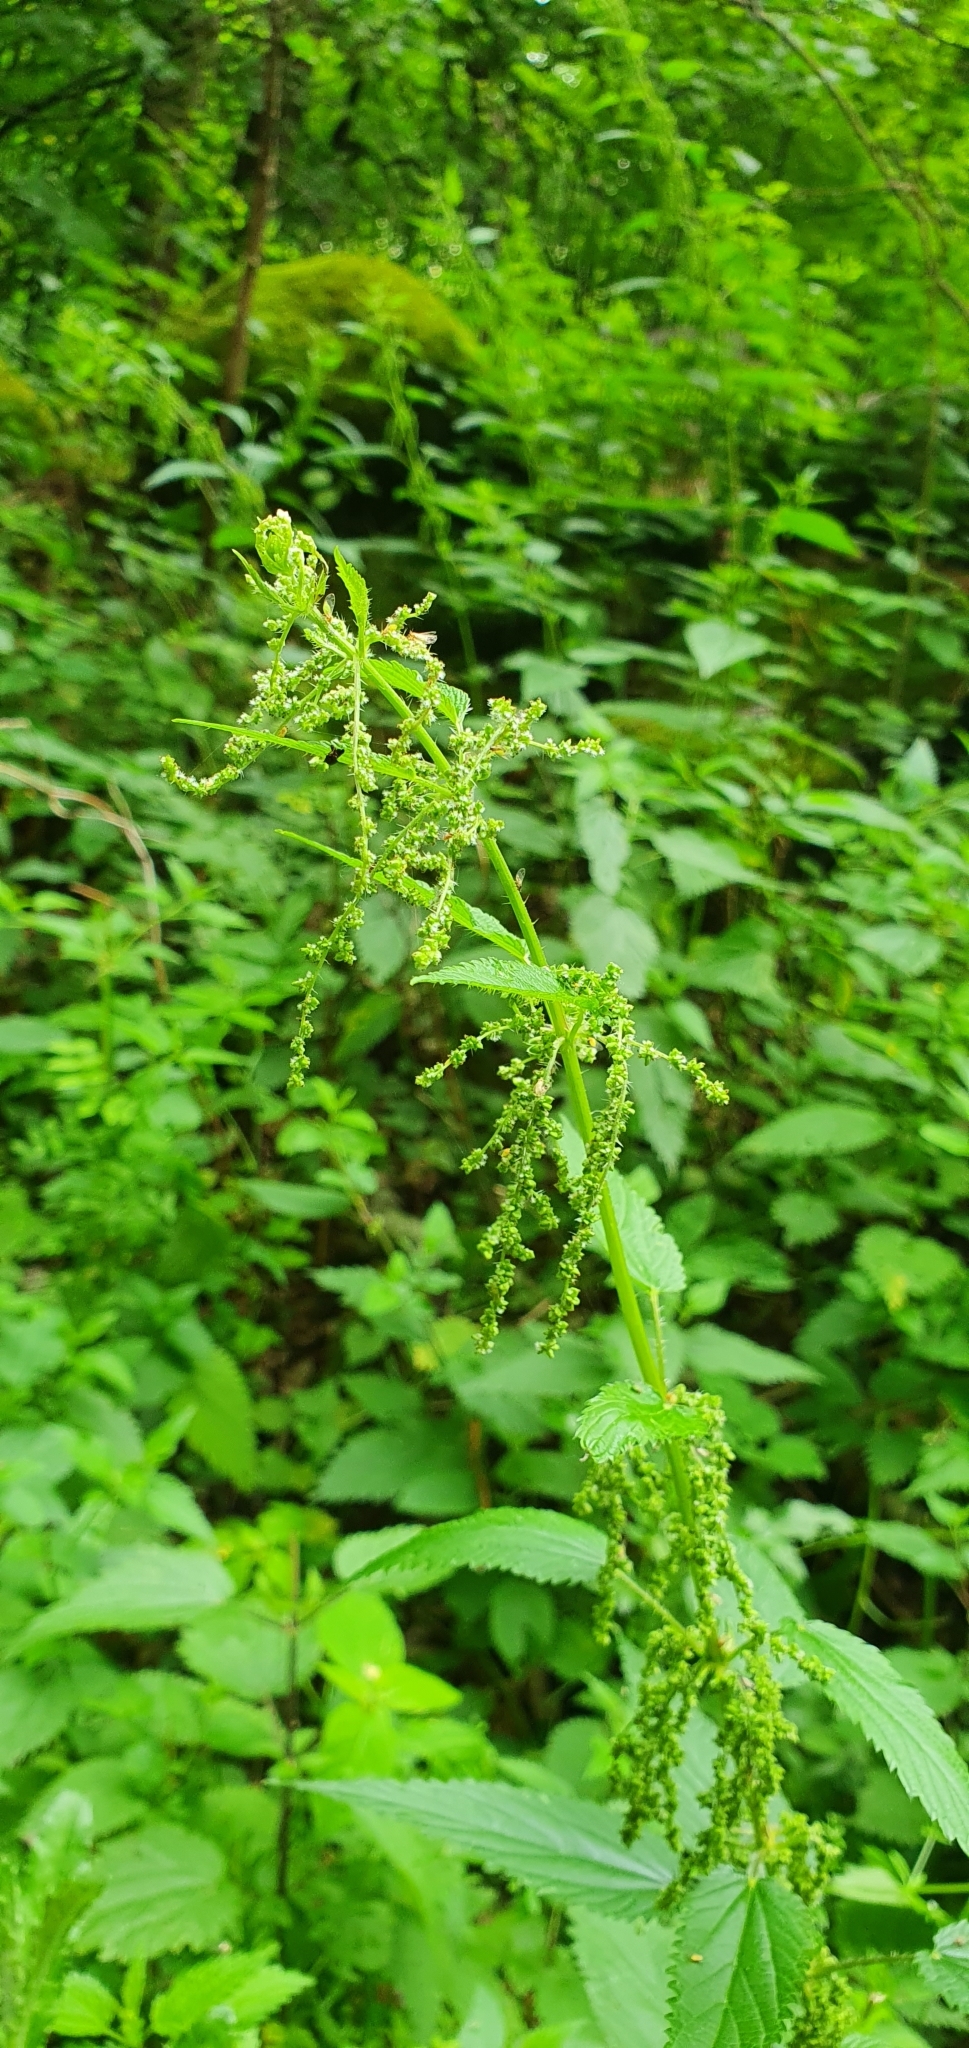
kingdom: Plantae
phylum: Tracheophyta
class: Magnoliopsida
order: Rosales
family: Urticaceae
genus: Urtica
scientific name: Urtica dioica
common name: Common nettle
